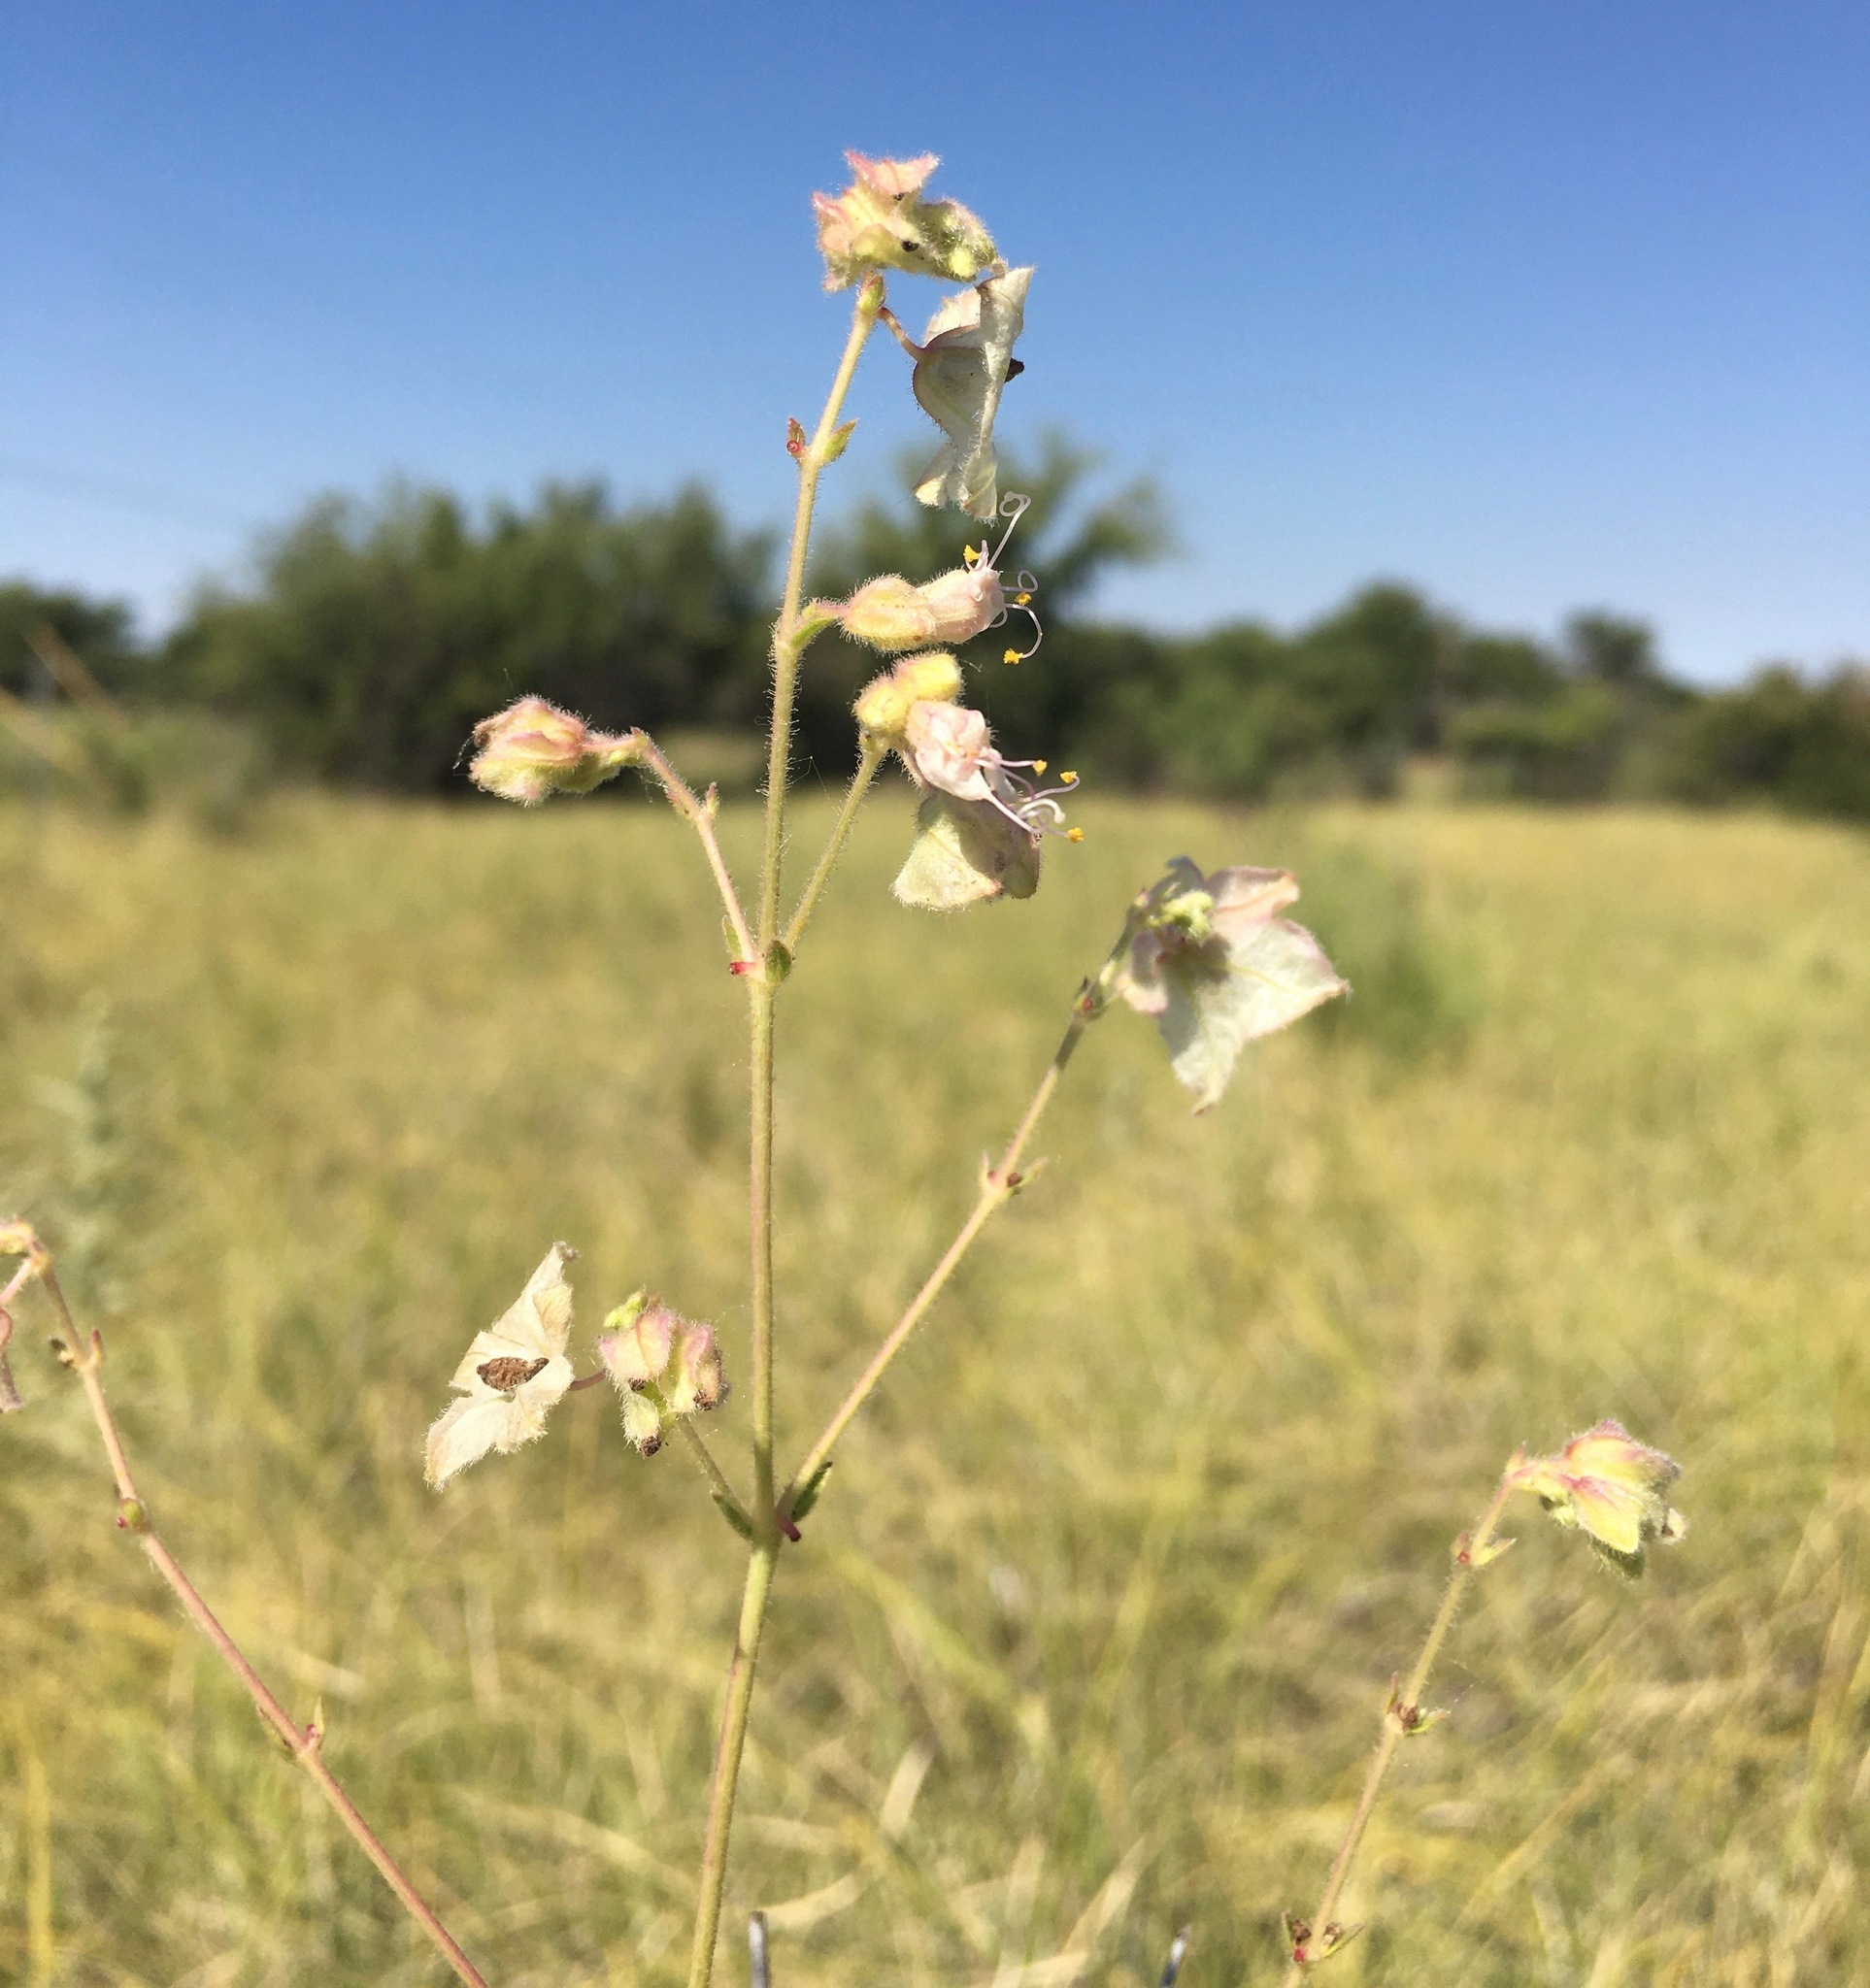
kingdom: Plantae
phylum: Tracheophyta
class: Magnoliopsida
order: Caryophyllales
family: Nyctaginaceae
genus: Mirabilis
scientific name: Mirabilis linearis
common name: Linear-leaved four-o'clock
